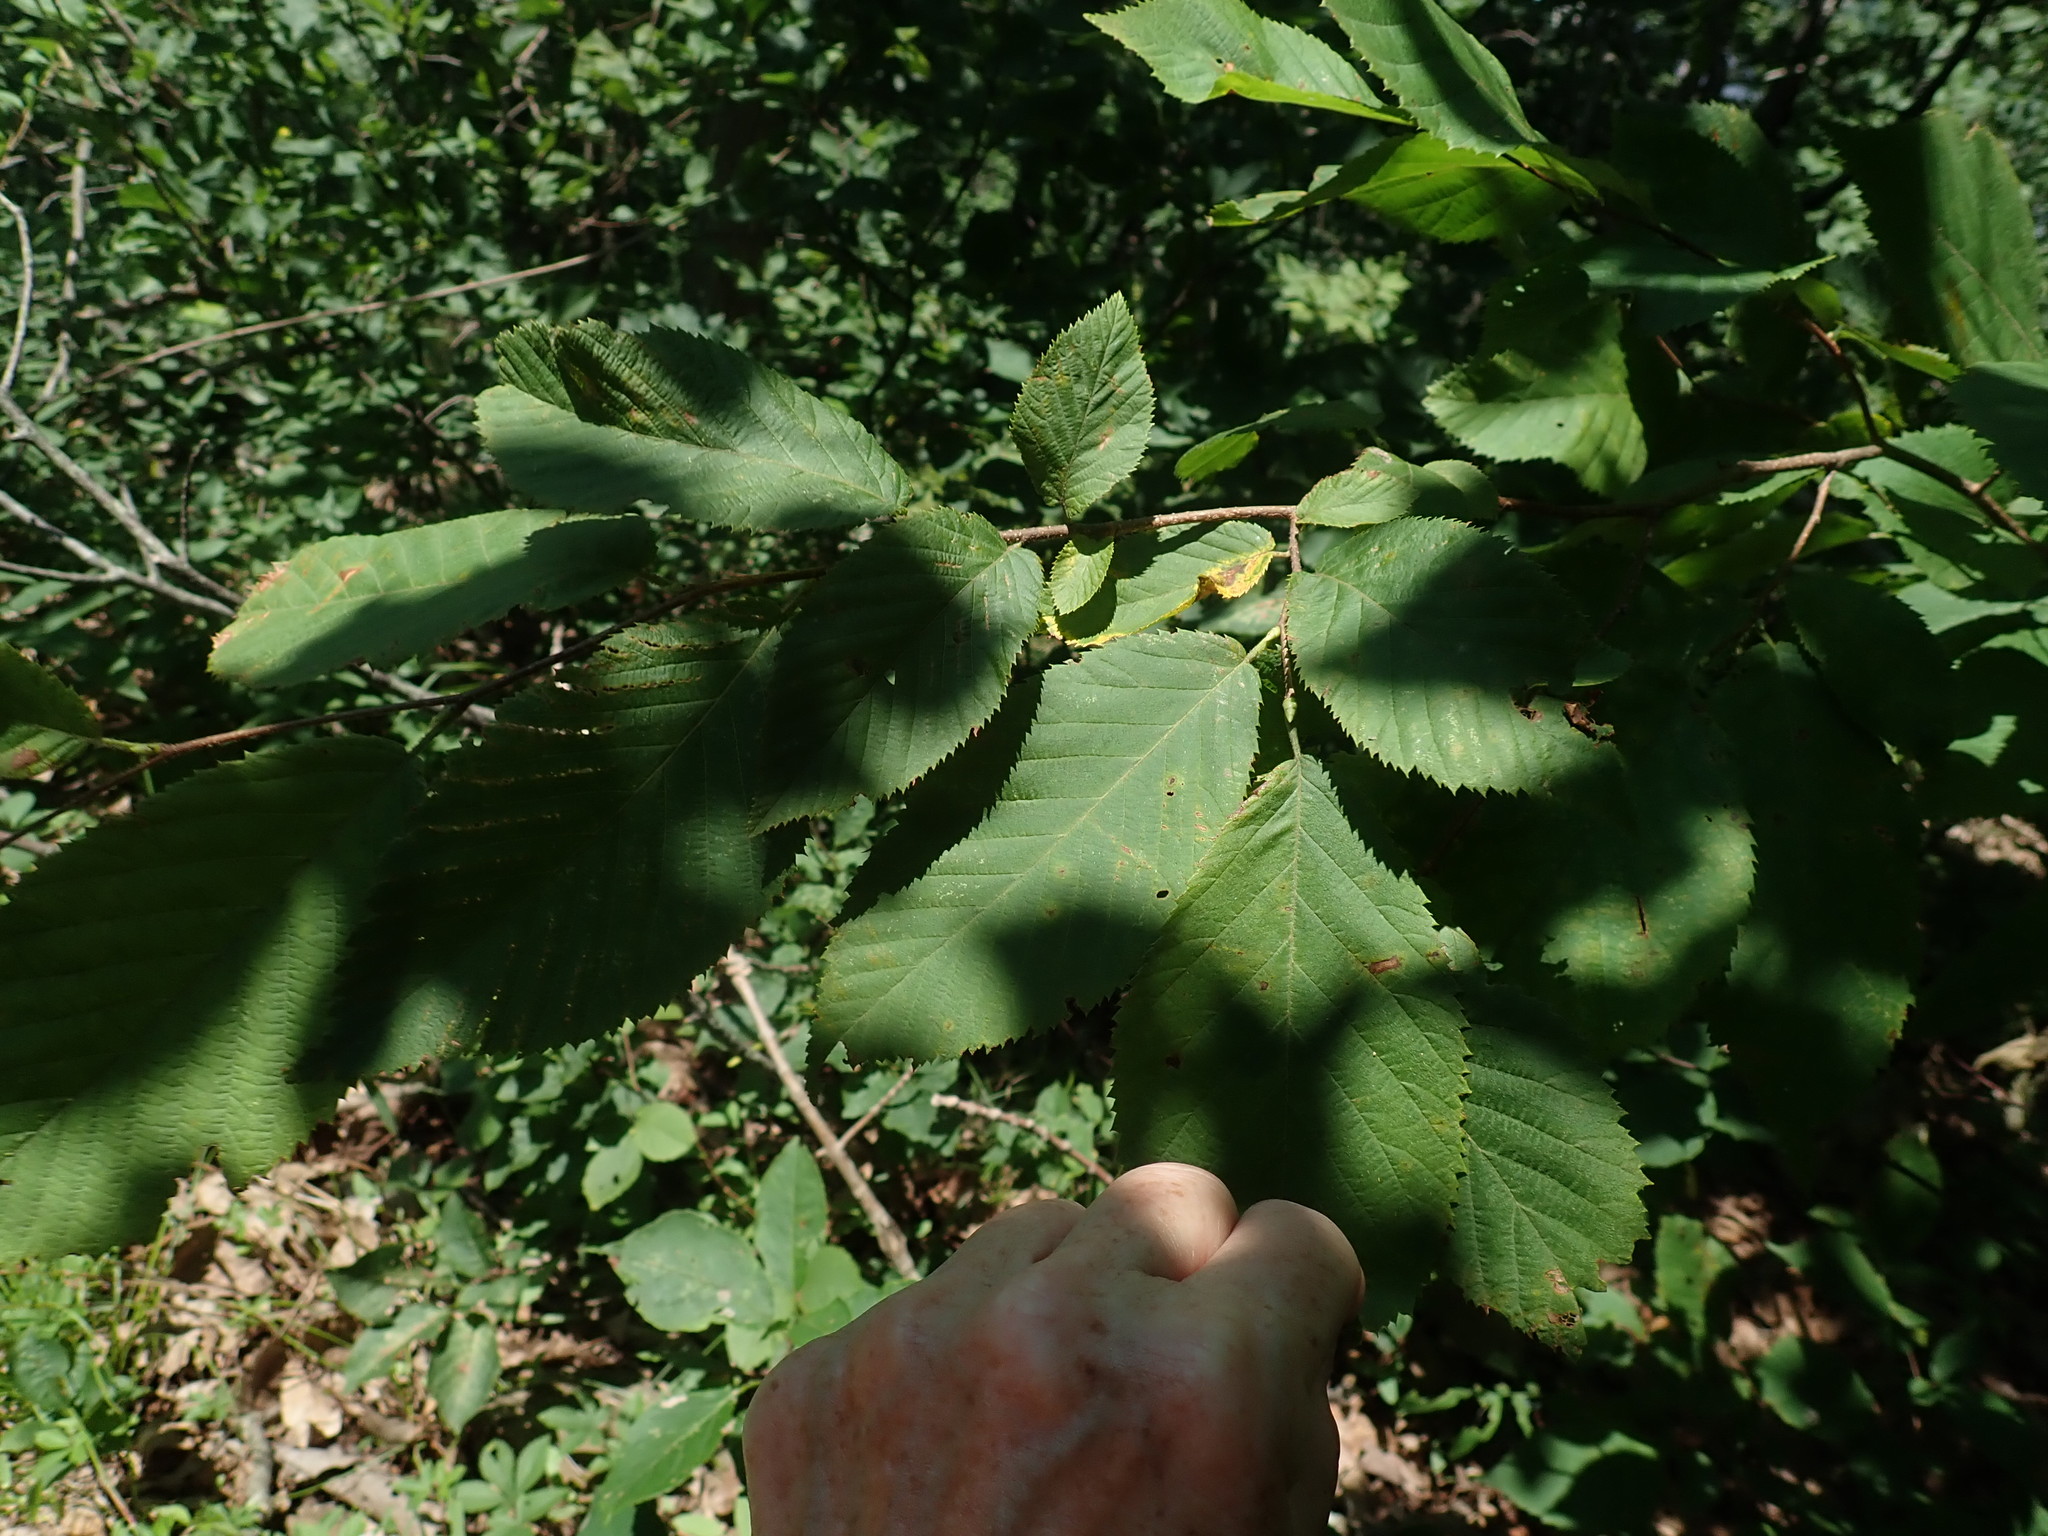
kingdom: Plantae
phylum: Tracheophyta
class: Magnoliopsida
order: Fagales
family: Betulaceae
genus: Ostrya
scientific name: Ostrya virginiana
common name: Ironwood
